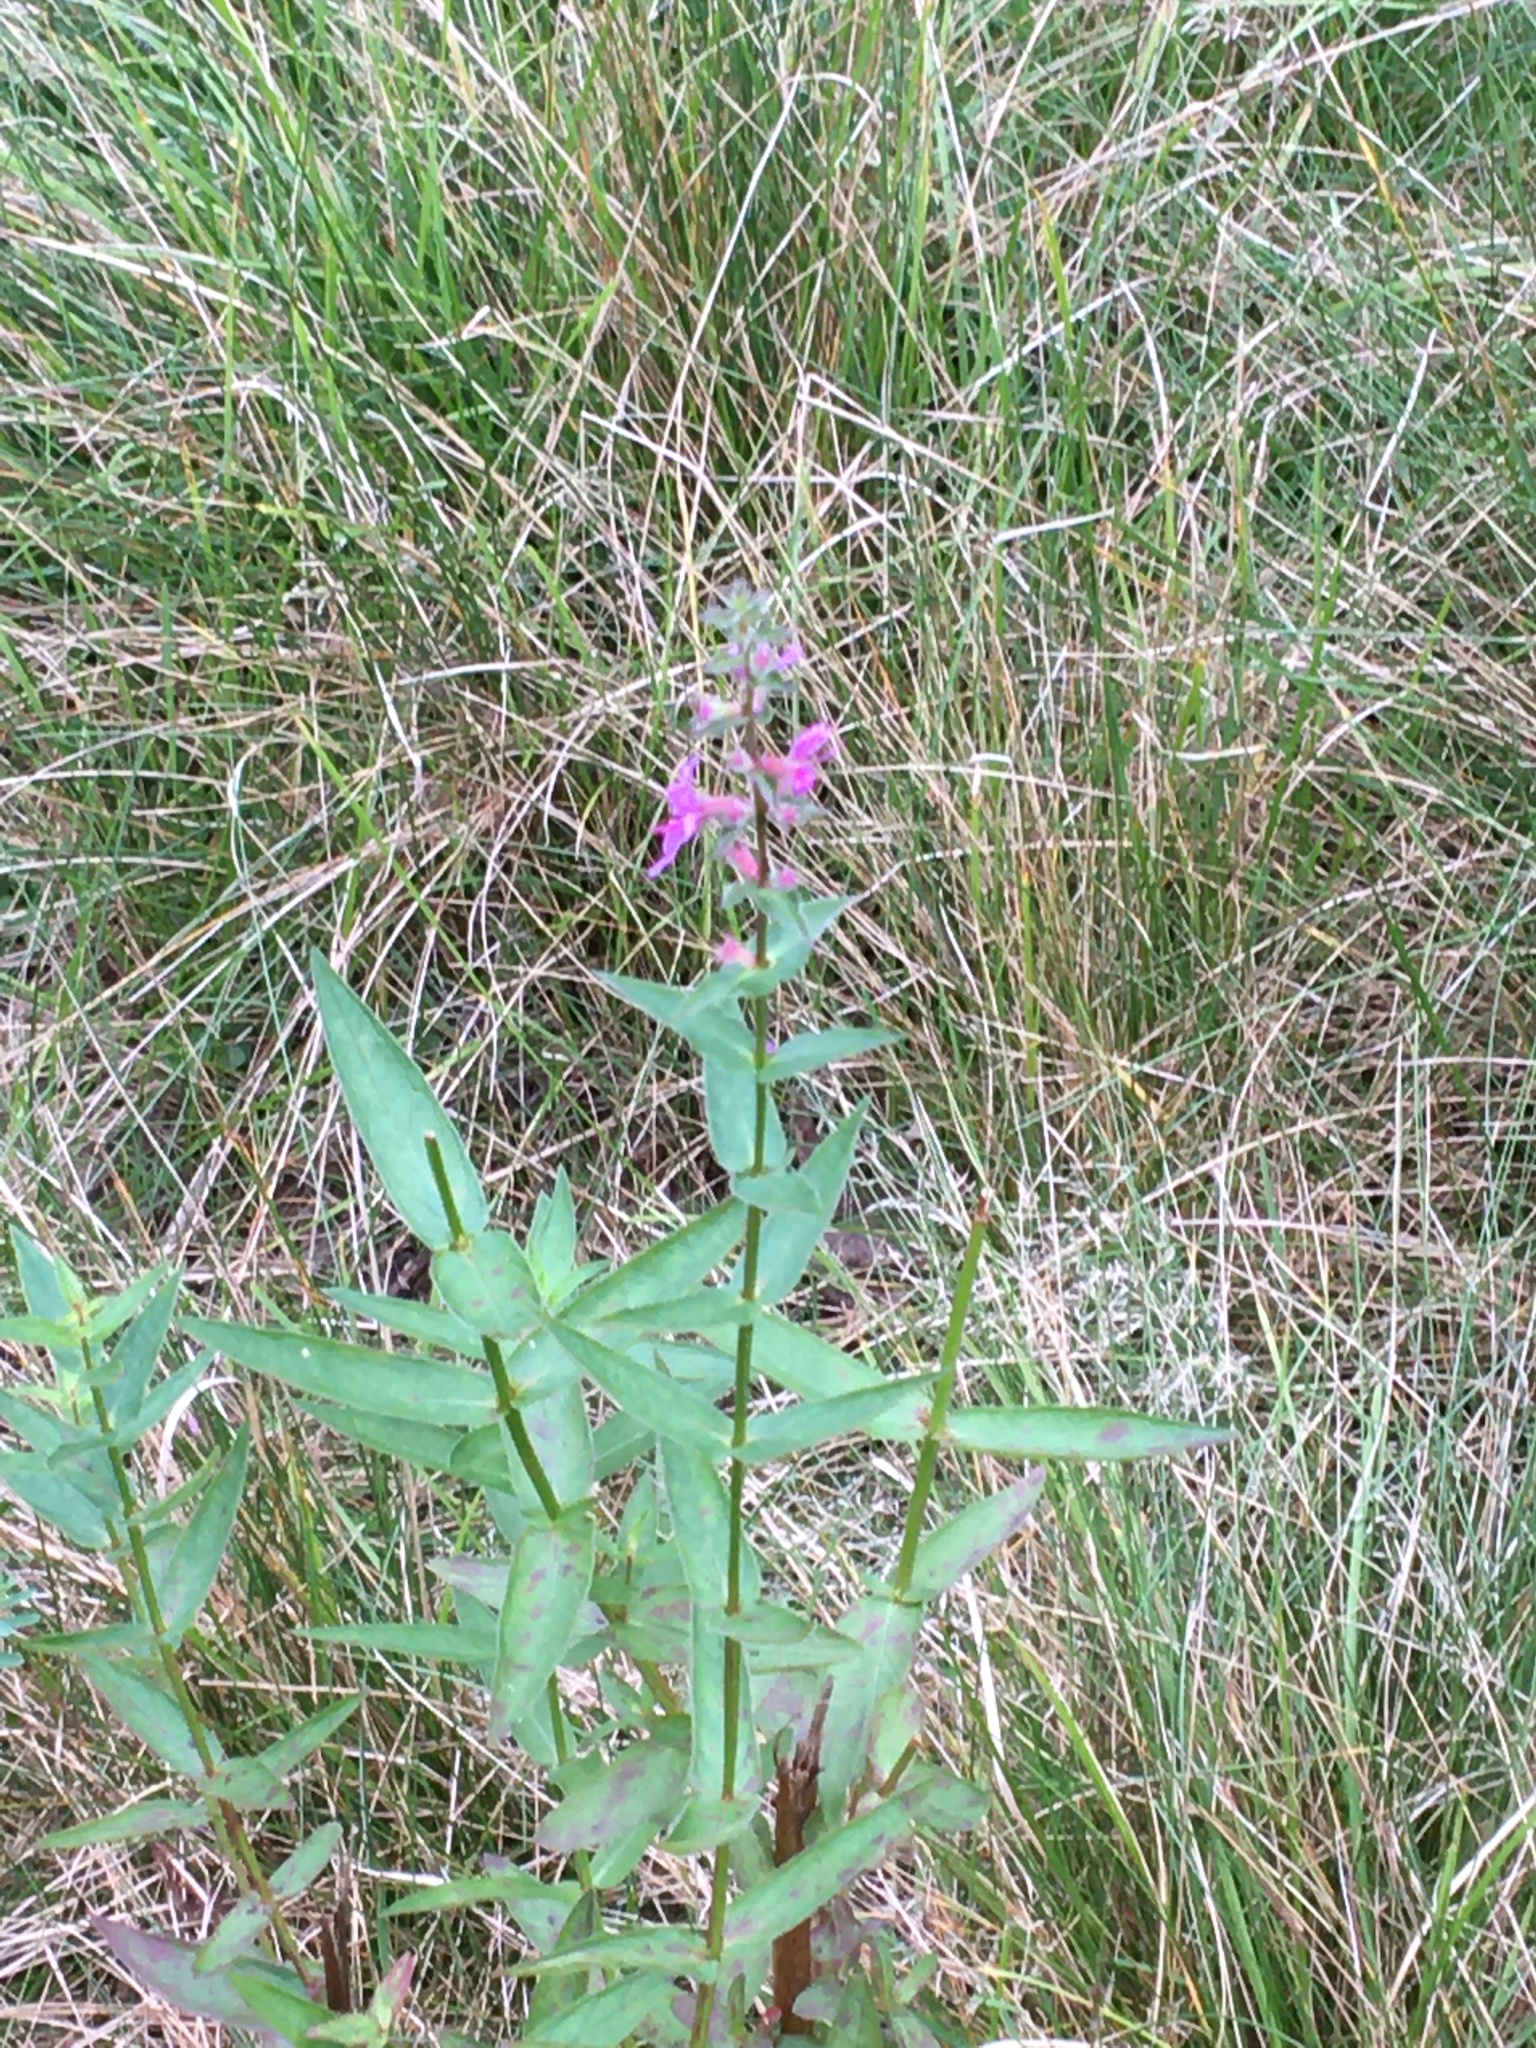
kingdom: Plantae
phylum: Tracheophyta
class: Magnoliopsida
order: Myrtales
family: Lythraceae
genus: Lythrum
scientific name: Lythrum salicaria
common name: Purple loosestrife
